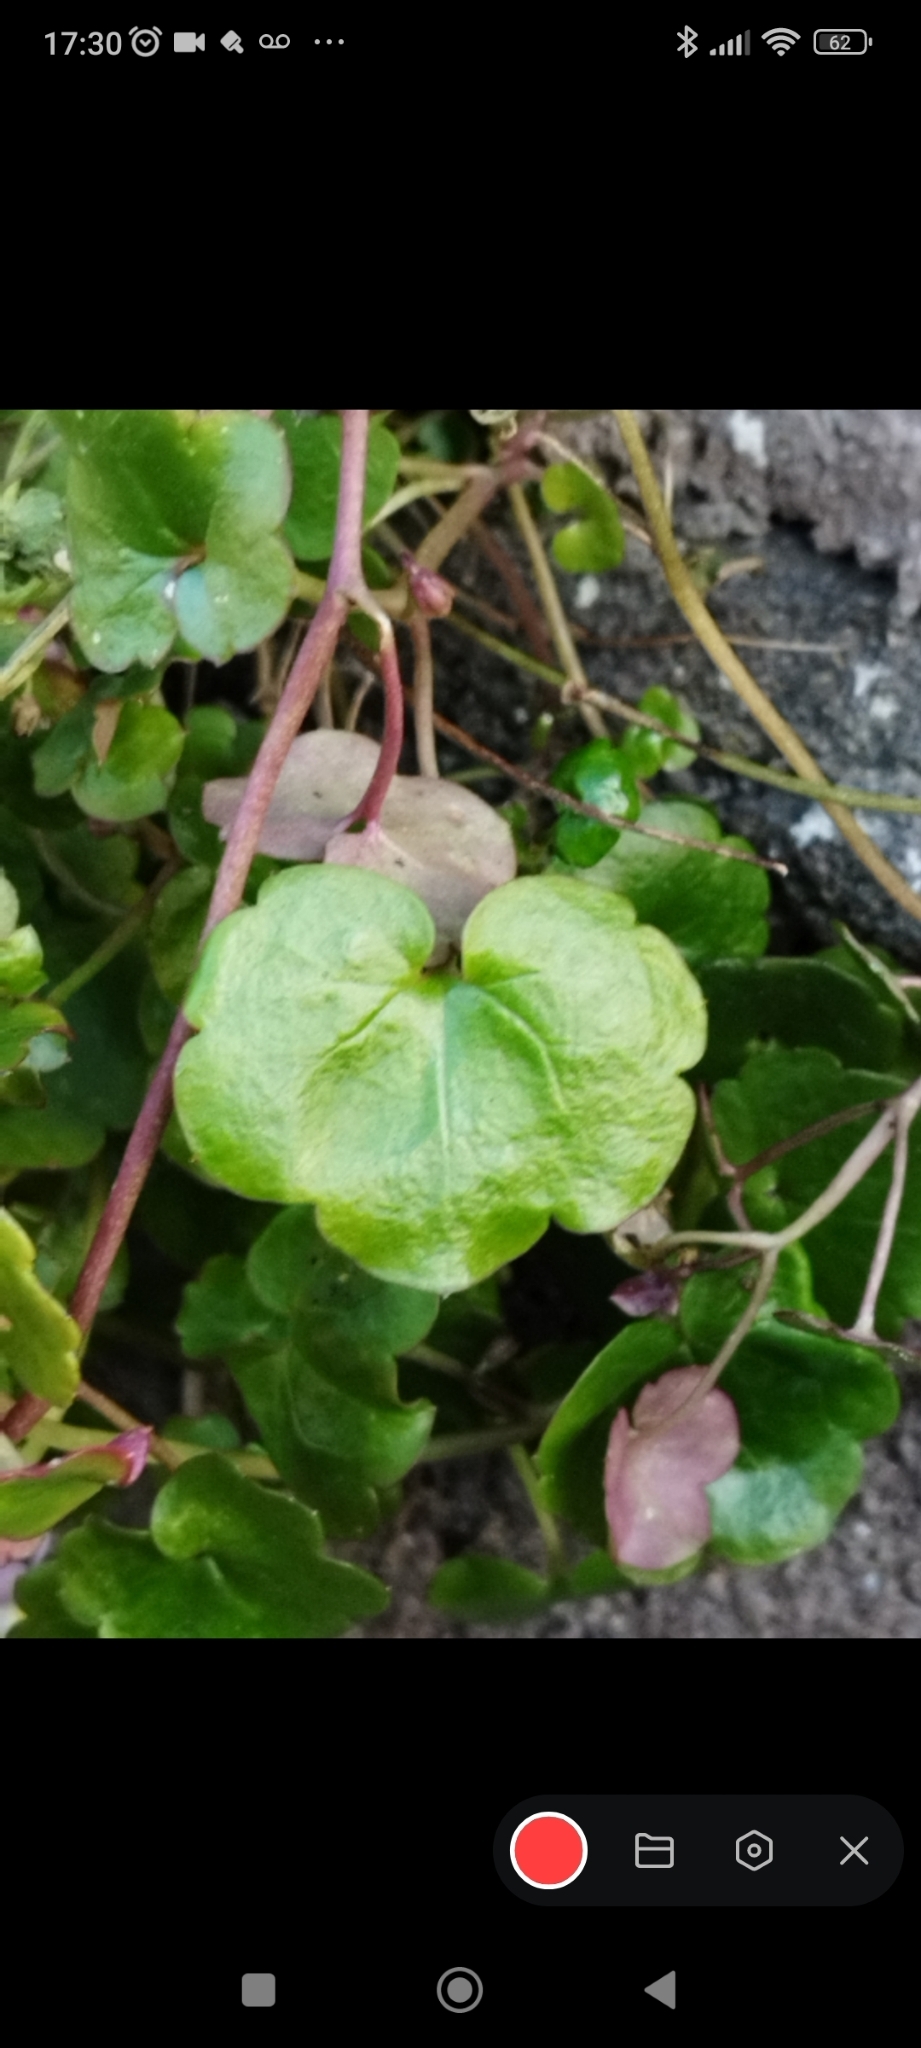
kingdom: Plantae
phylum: Tracheophyta
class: Magnoliopsida
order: Lamiales
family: Plantaginaceae
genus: Cymbalaria
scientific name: Cymbalaria muralis
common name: Ivy-leaved toadflax
